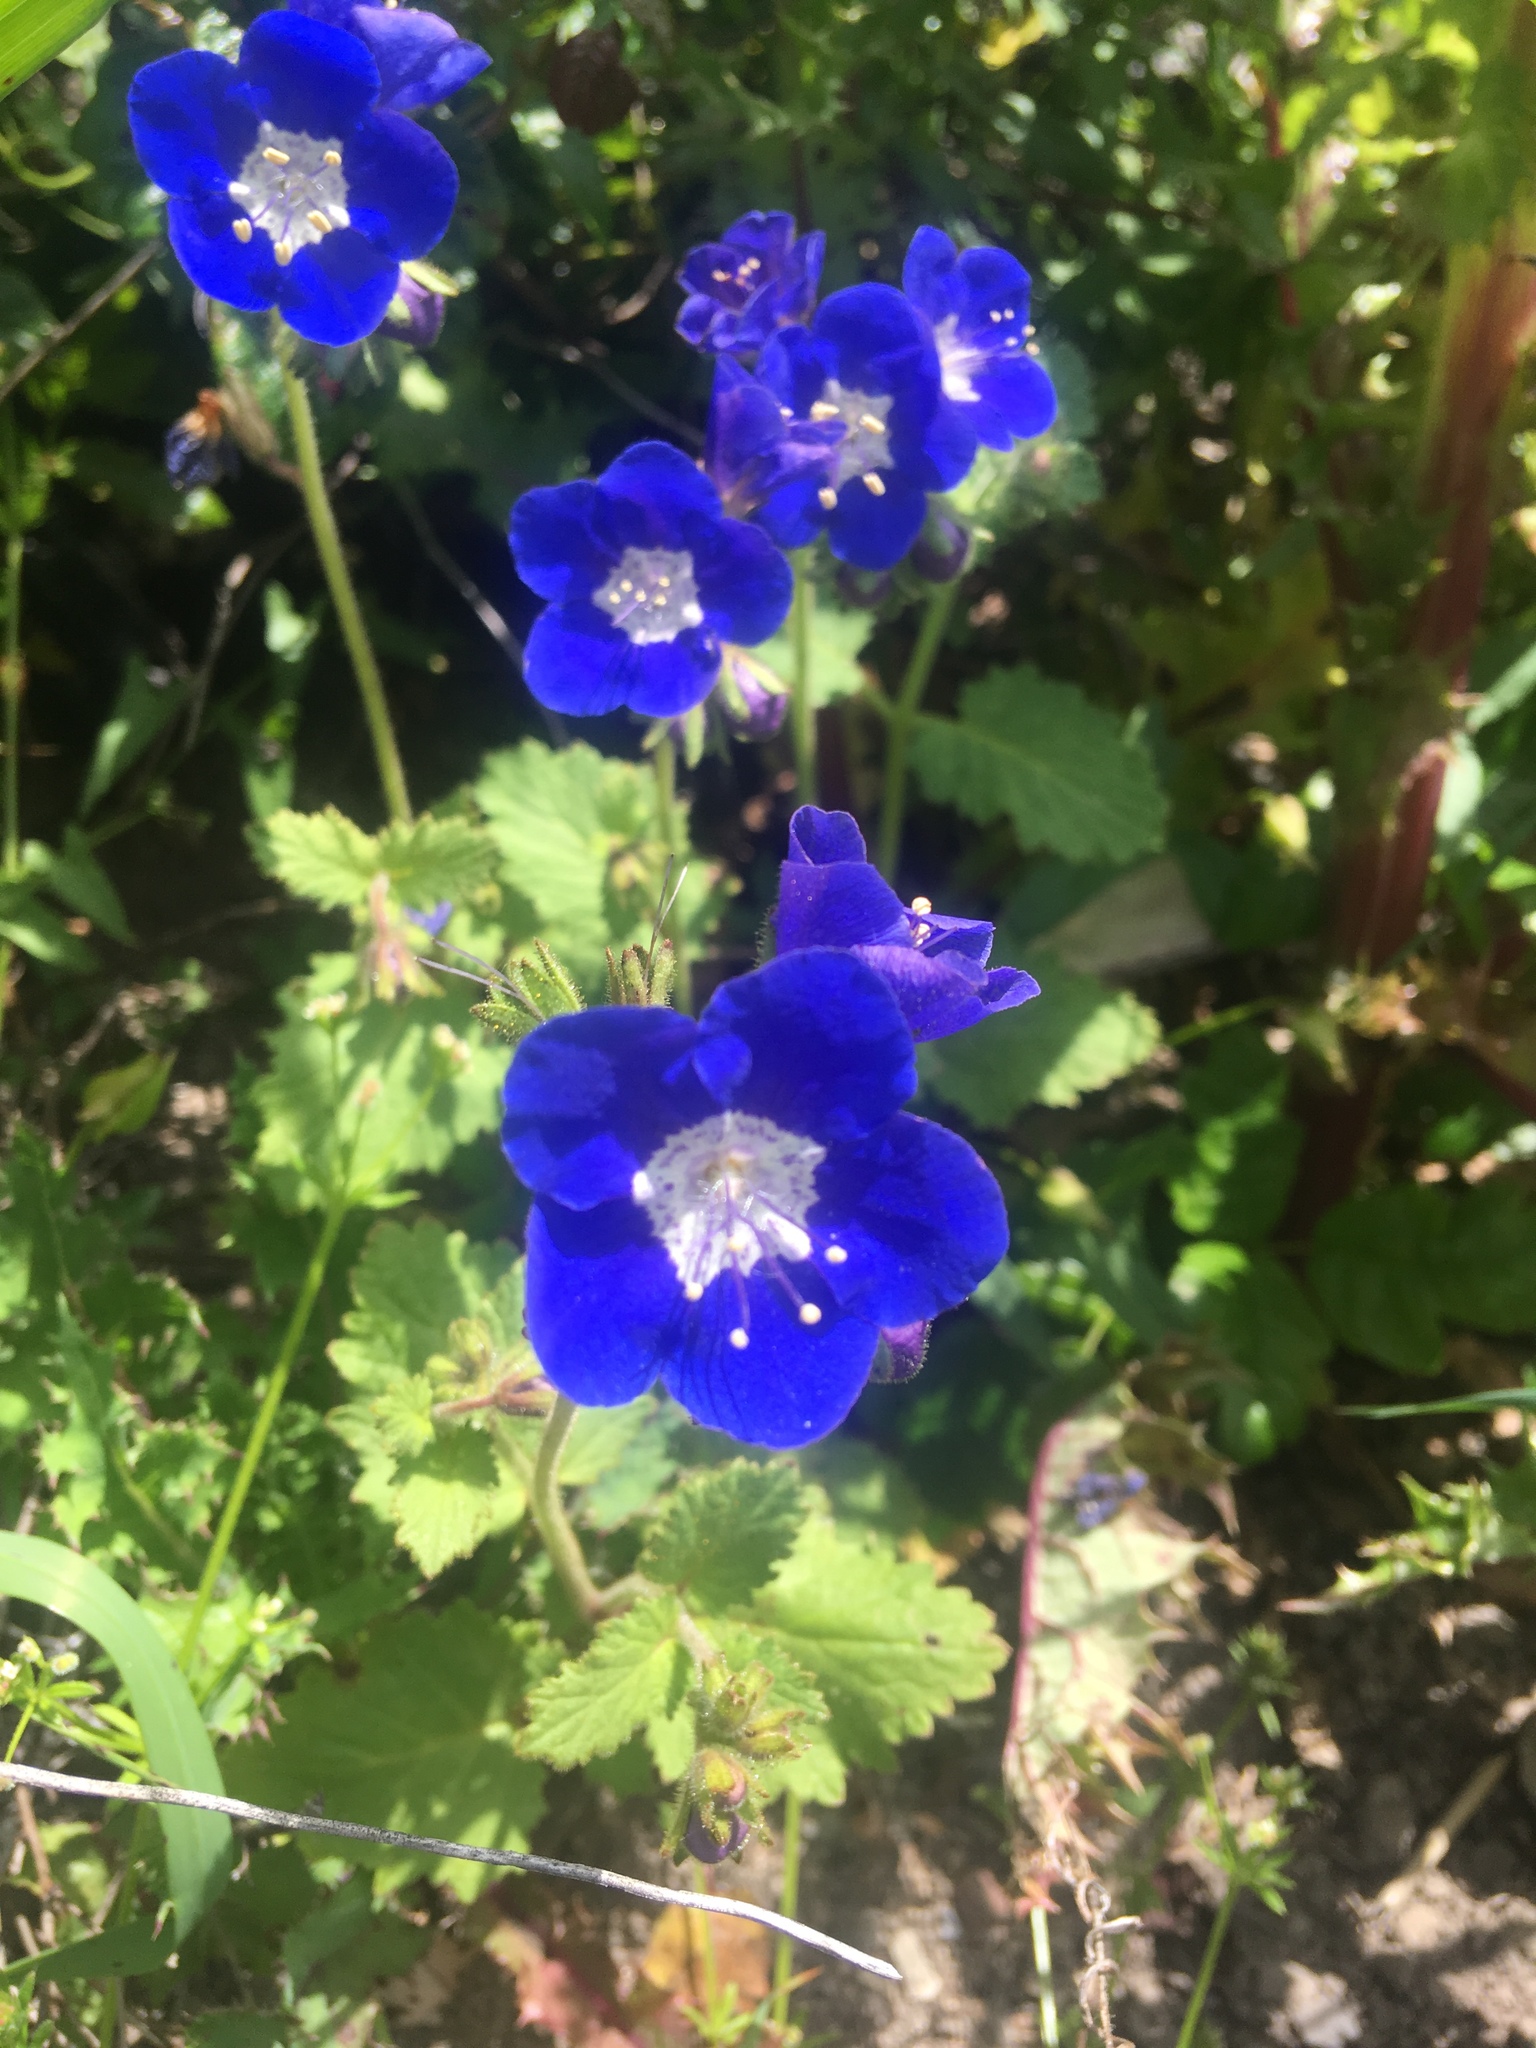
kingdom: Plantae
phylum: Tracheophyta
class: Magnoliopsida
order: Boraginales
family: Hydrophyllaceae
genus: Phacelia
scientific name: Phacelia viscida
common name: Sticky phacelia
